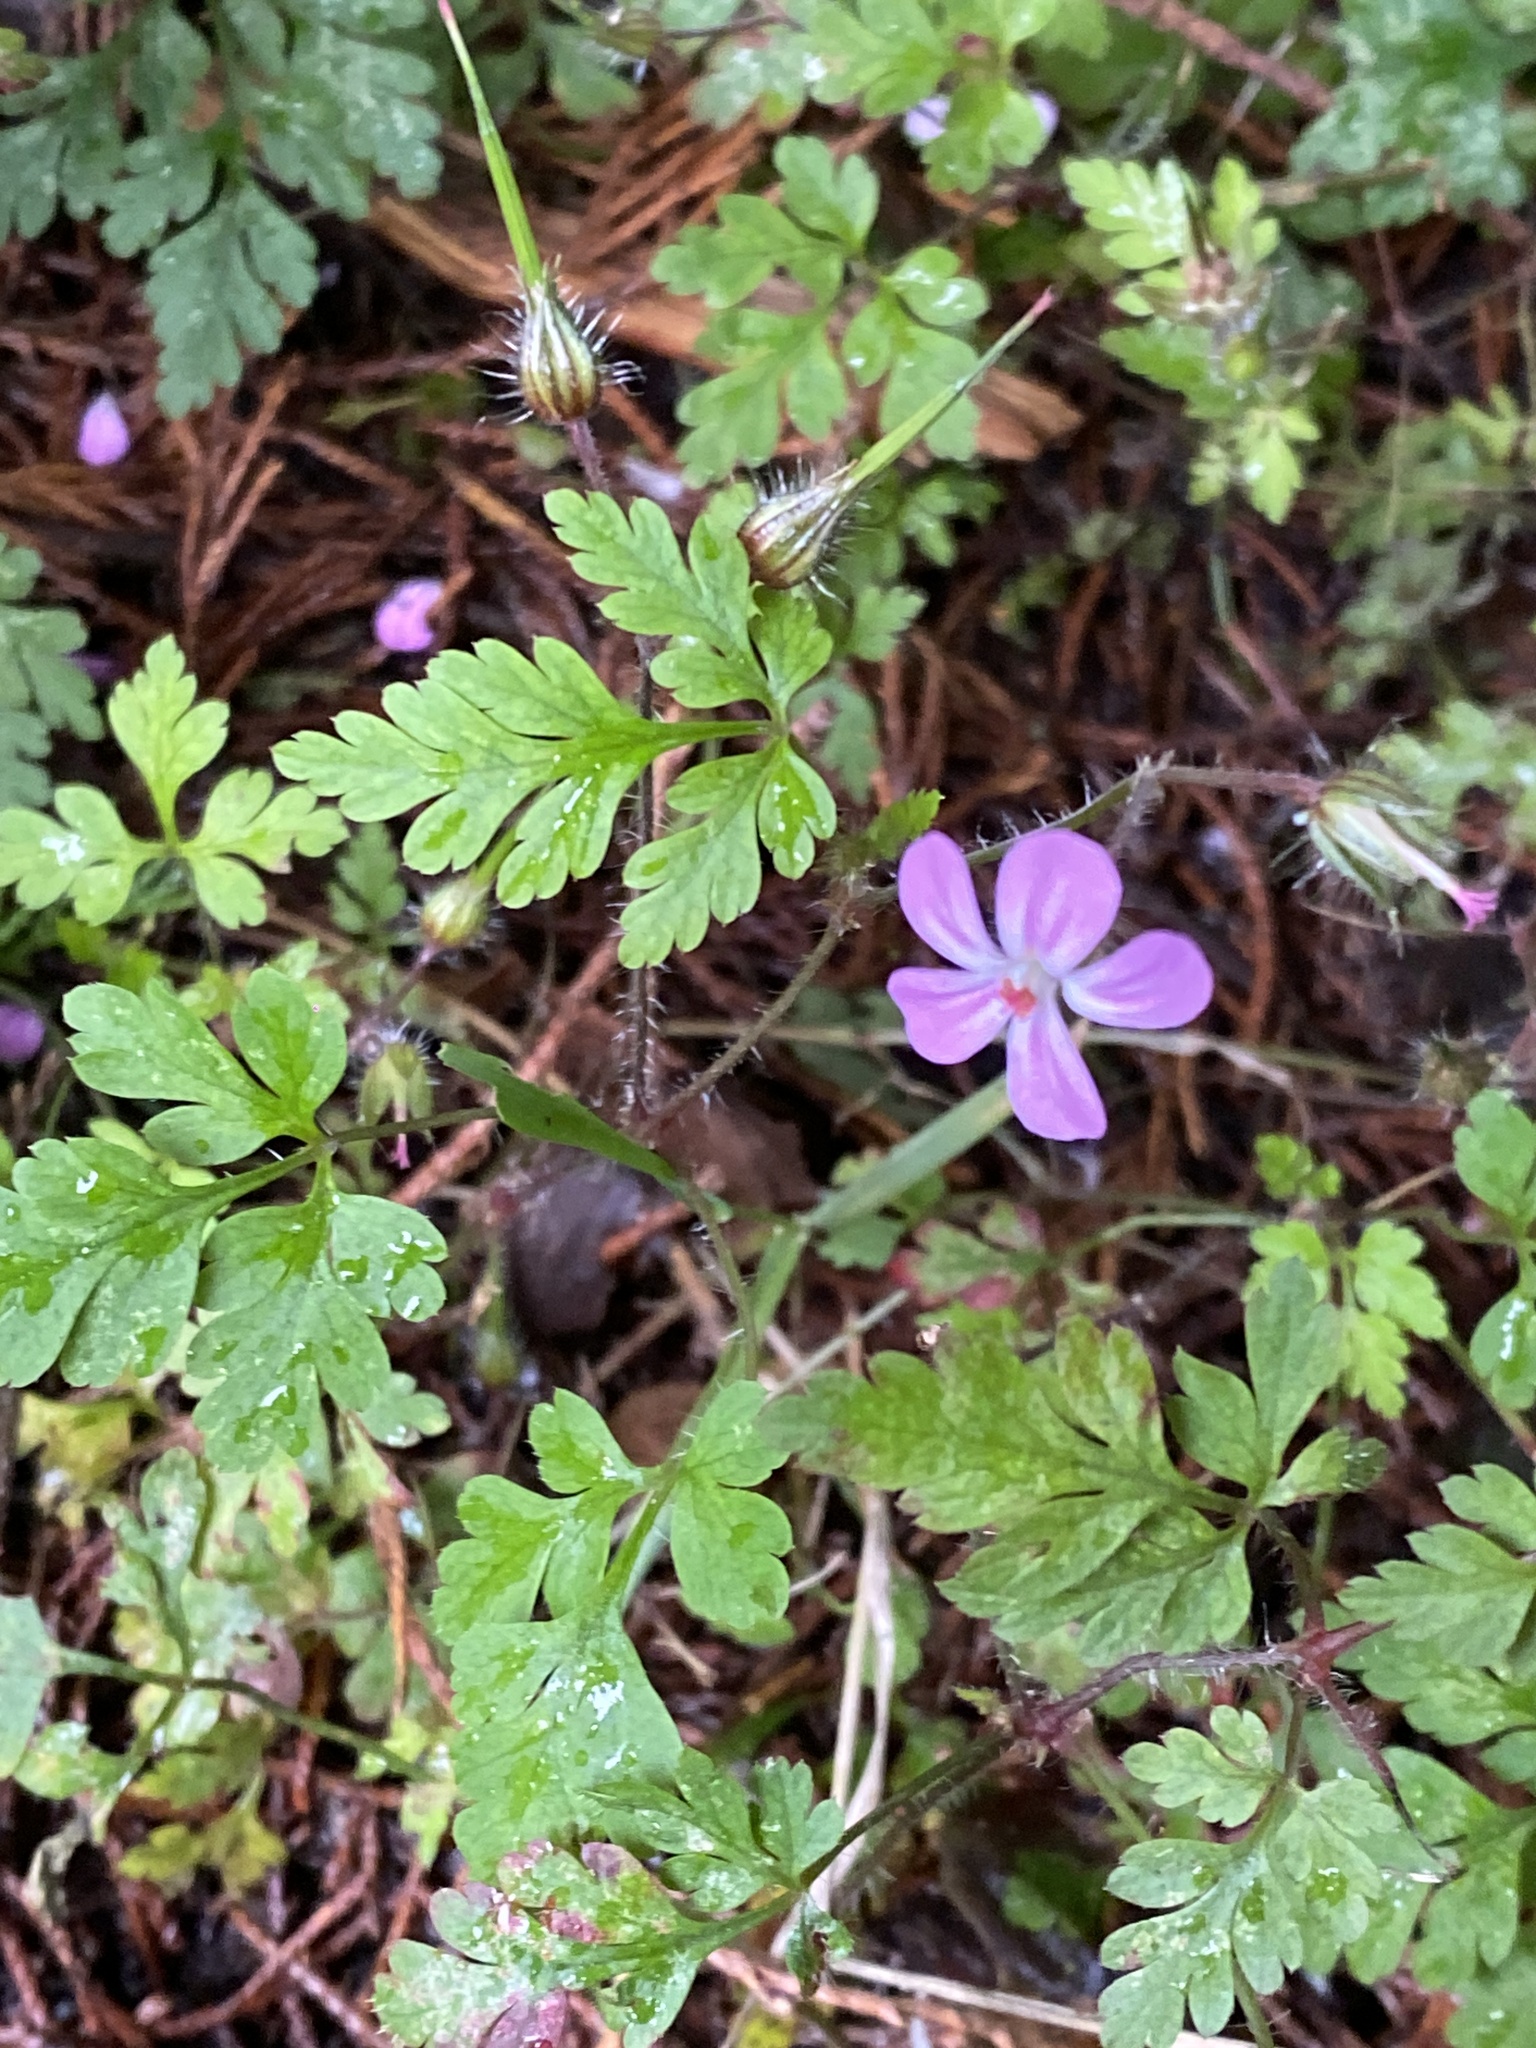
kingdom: Plantae
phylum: Tracheophyta
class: Magnoliopsida
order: Geraniales
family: Geraniaceae
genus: Geranium
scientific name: Geranium robertianum
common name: Herb-robert
